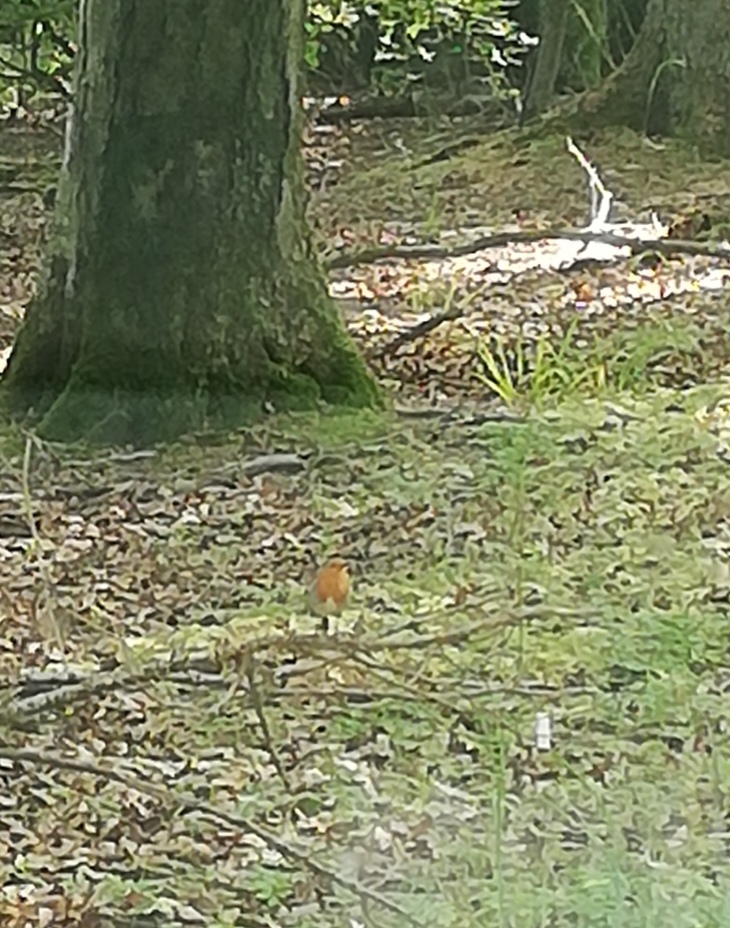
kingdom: Animalia
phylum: Chordata
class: Aves
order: Passeriformes
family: Muscicapidae
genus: Erithacus
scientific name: Erithacus rubecula
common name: European robin
